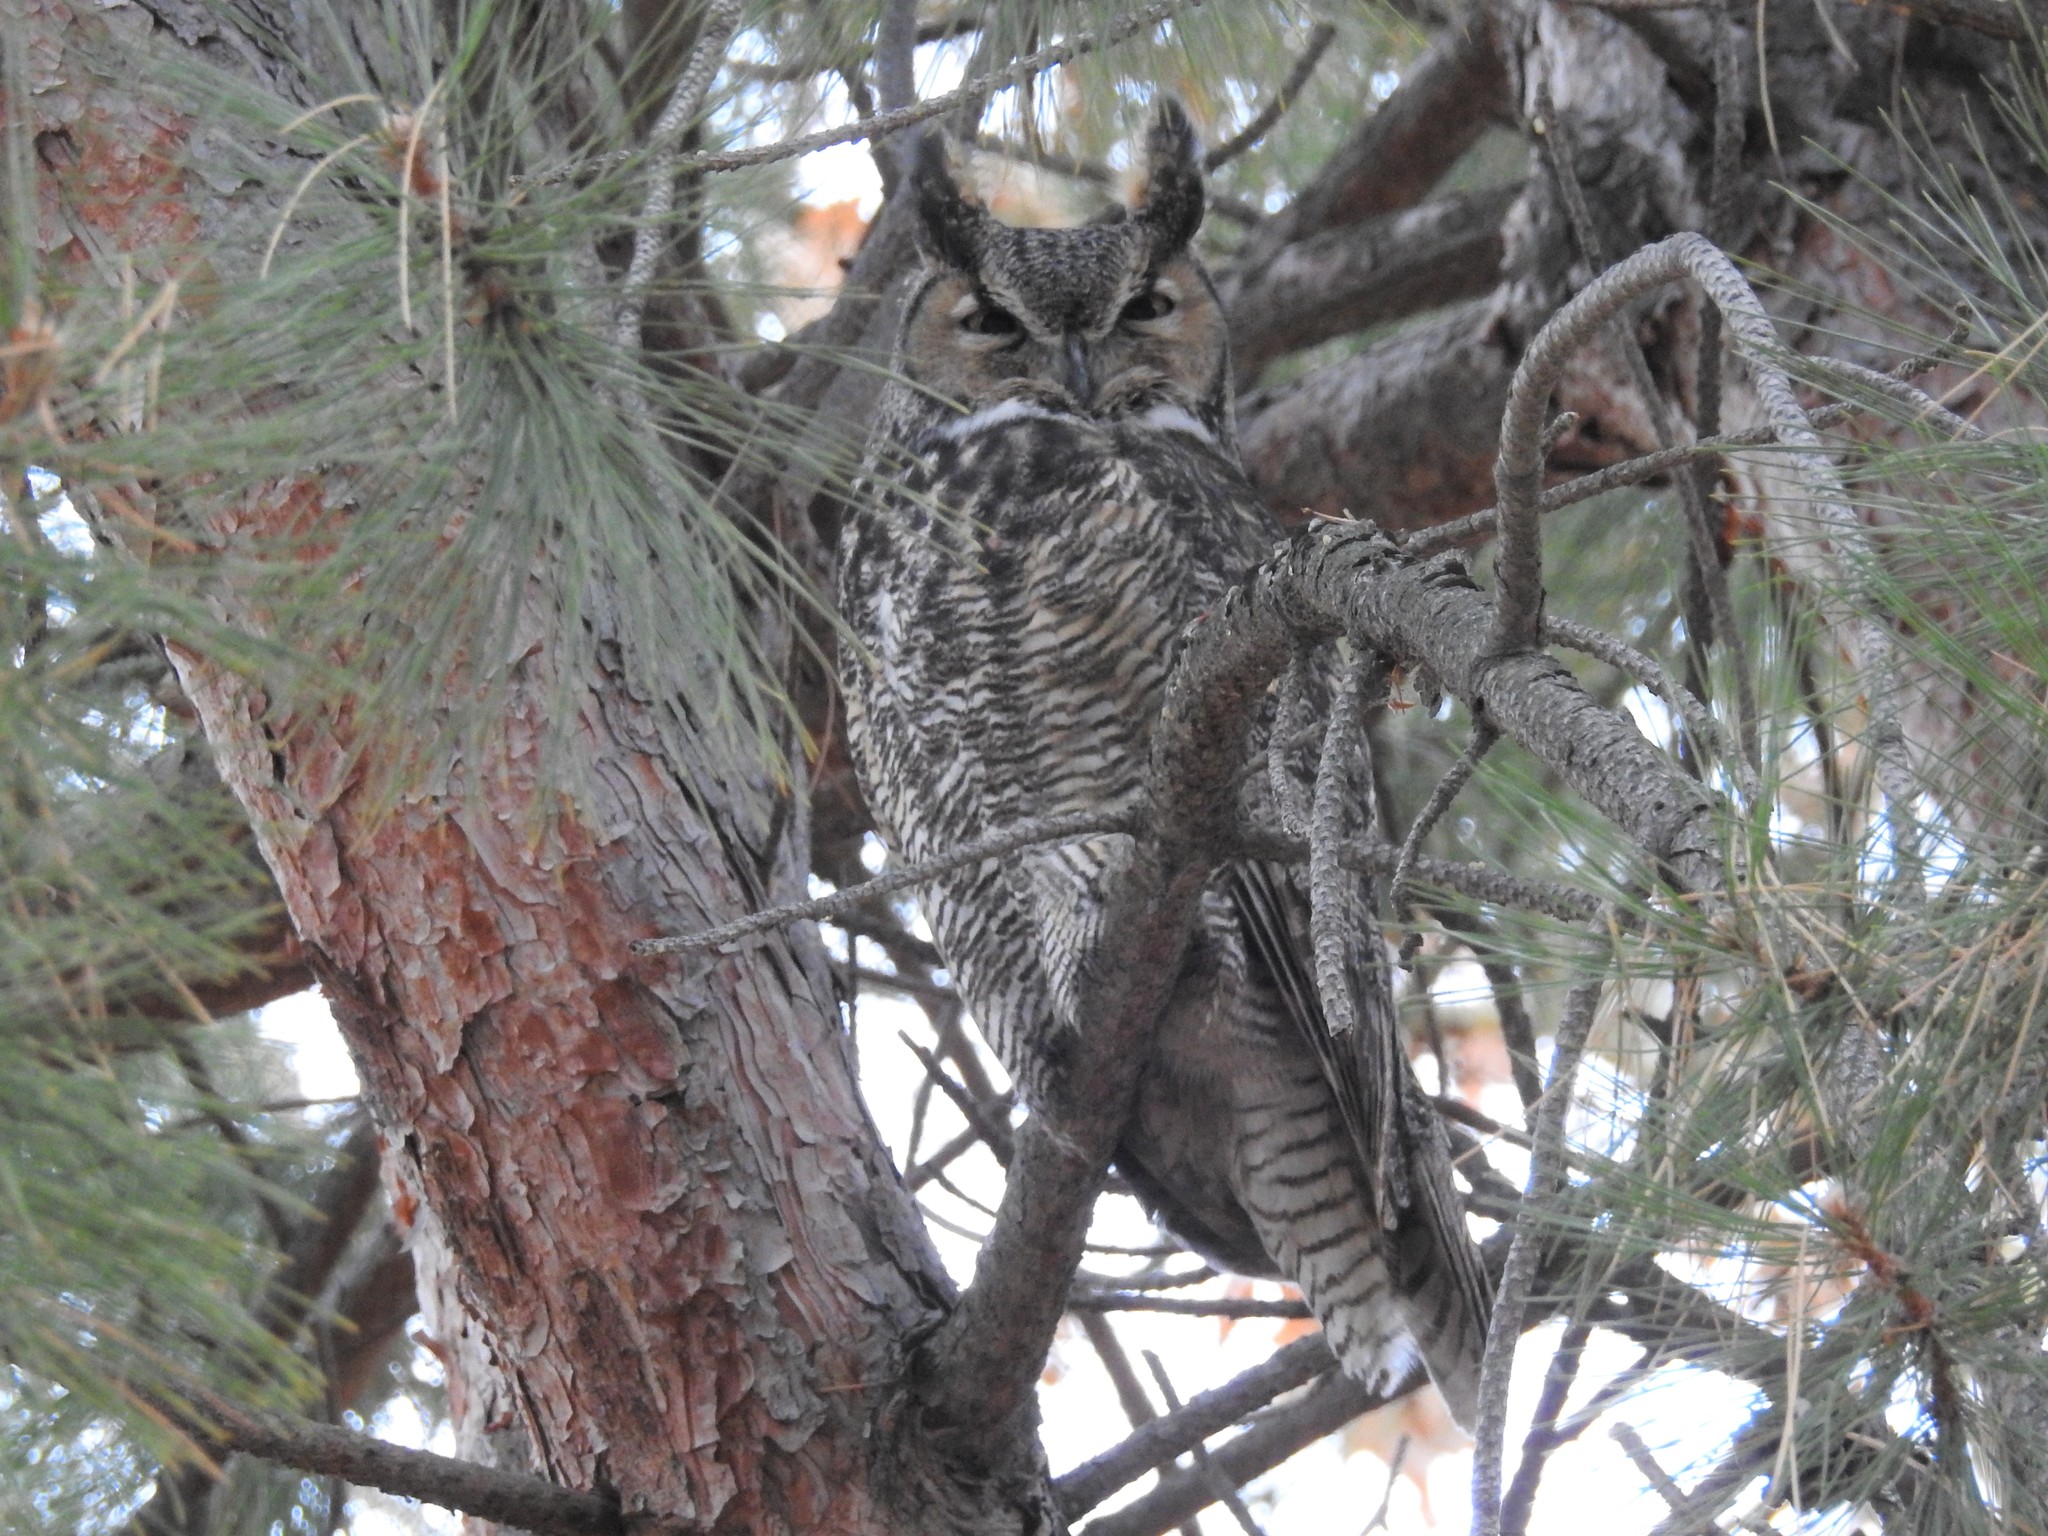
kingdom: Animalia
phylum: Chordata
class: Aves
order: Strigiformes
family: Strigidae
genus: Bubo
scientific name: Bubo virginianus
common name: Great horned owl
